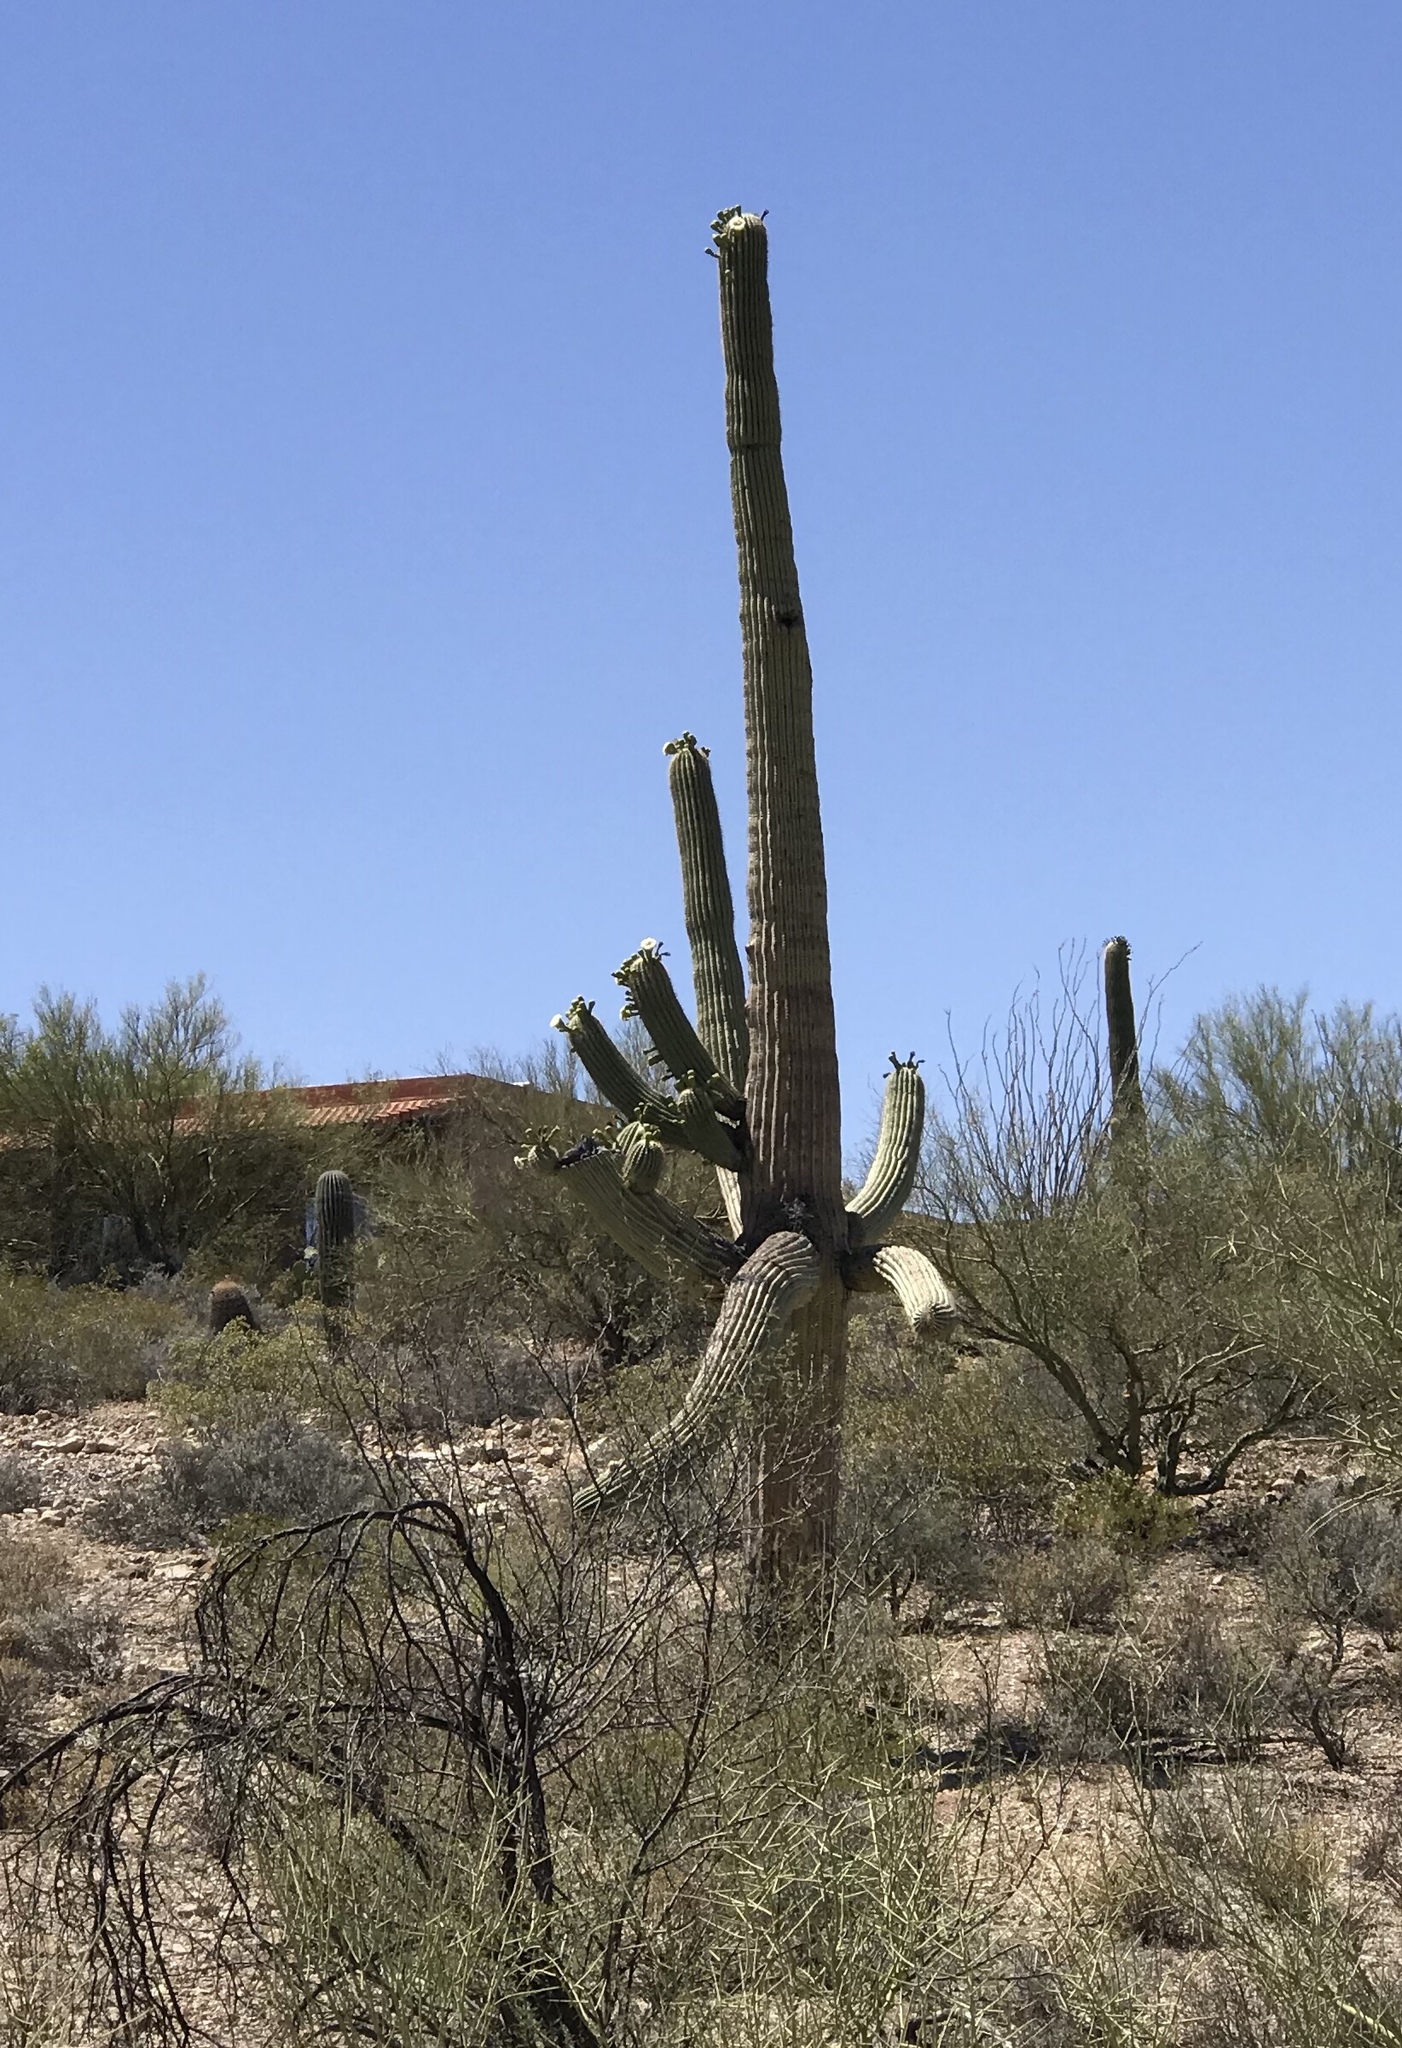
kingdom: Plantae
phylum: Tracheophyta
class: Magnoliopsida
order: Caryophyllales
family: Cactaceae
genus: Carnegiea
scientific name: Carnegiea gigantea
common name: Saguaro
